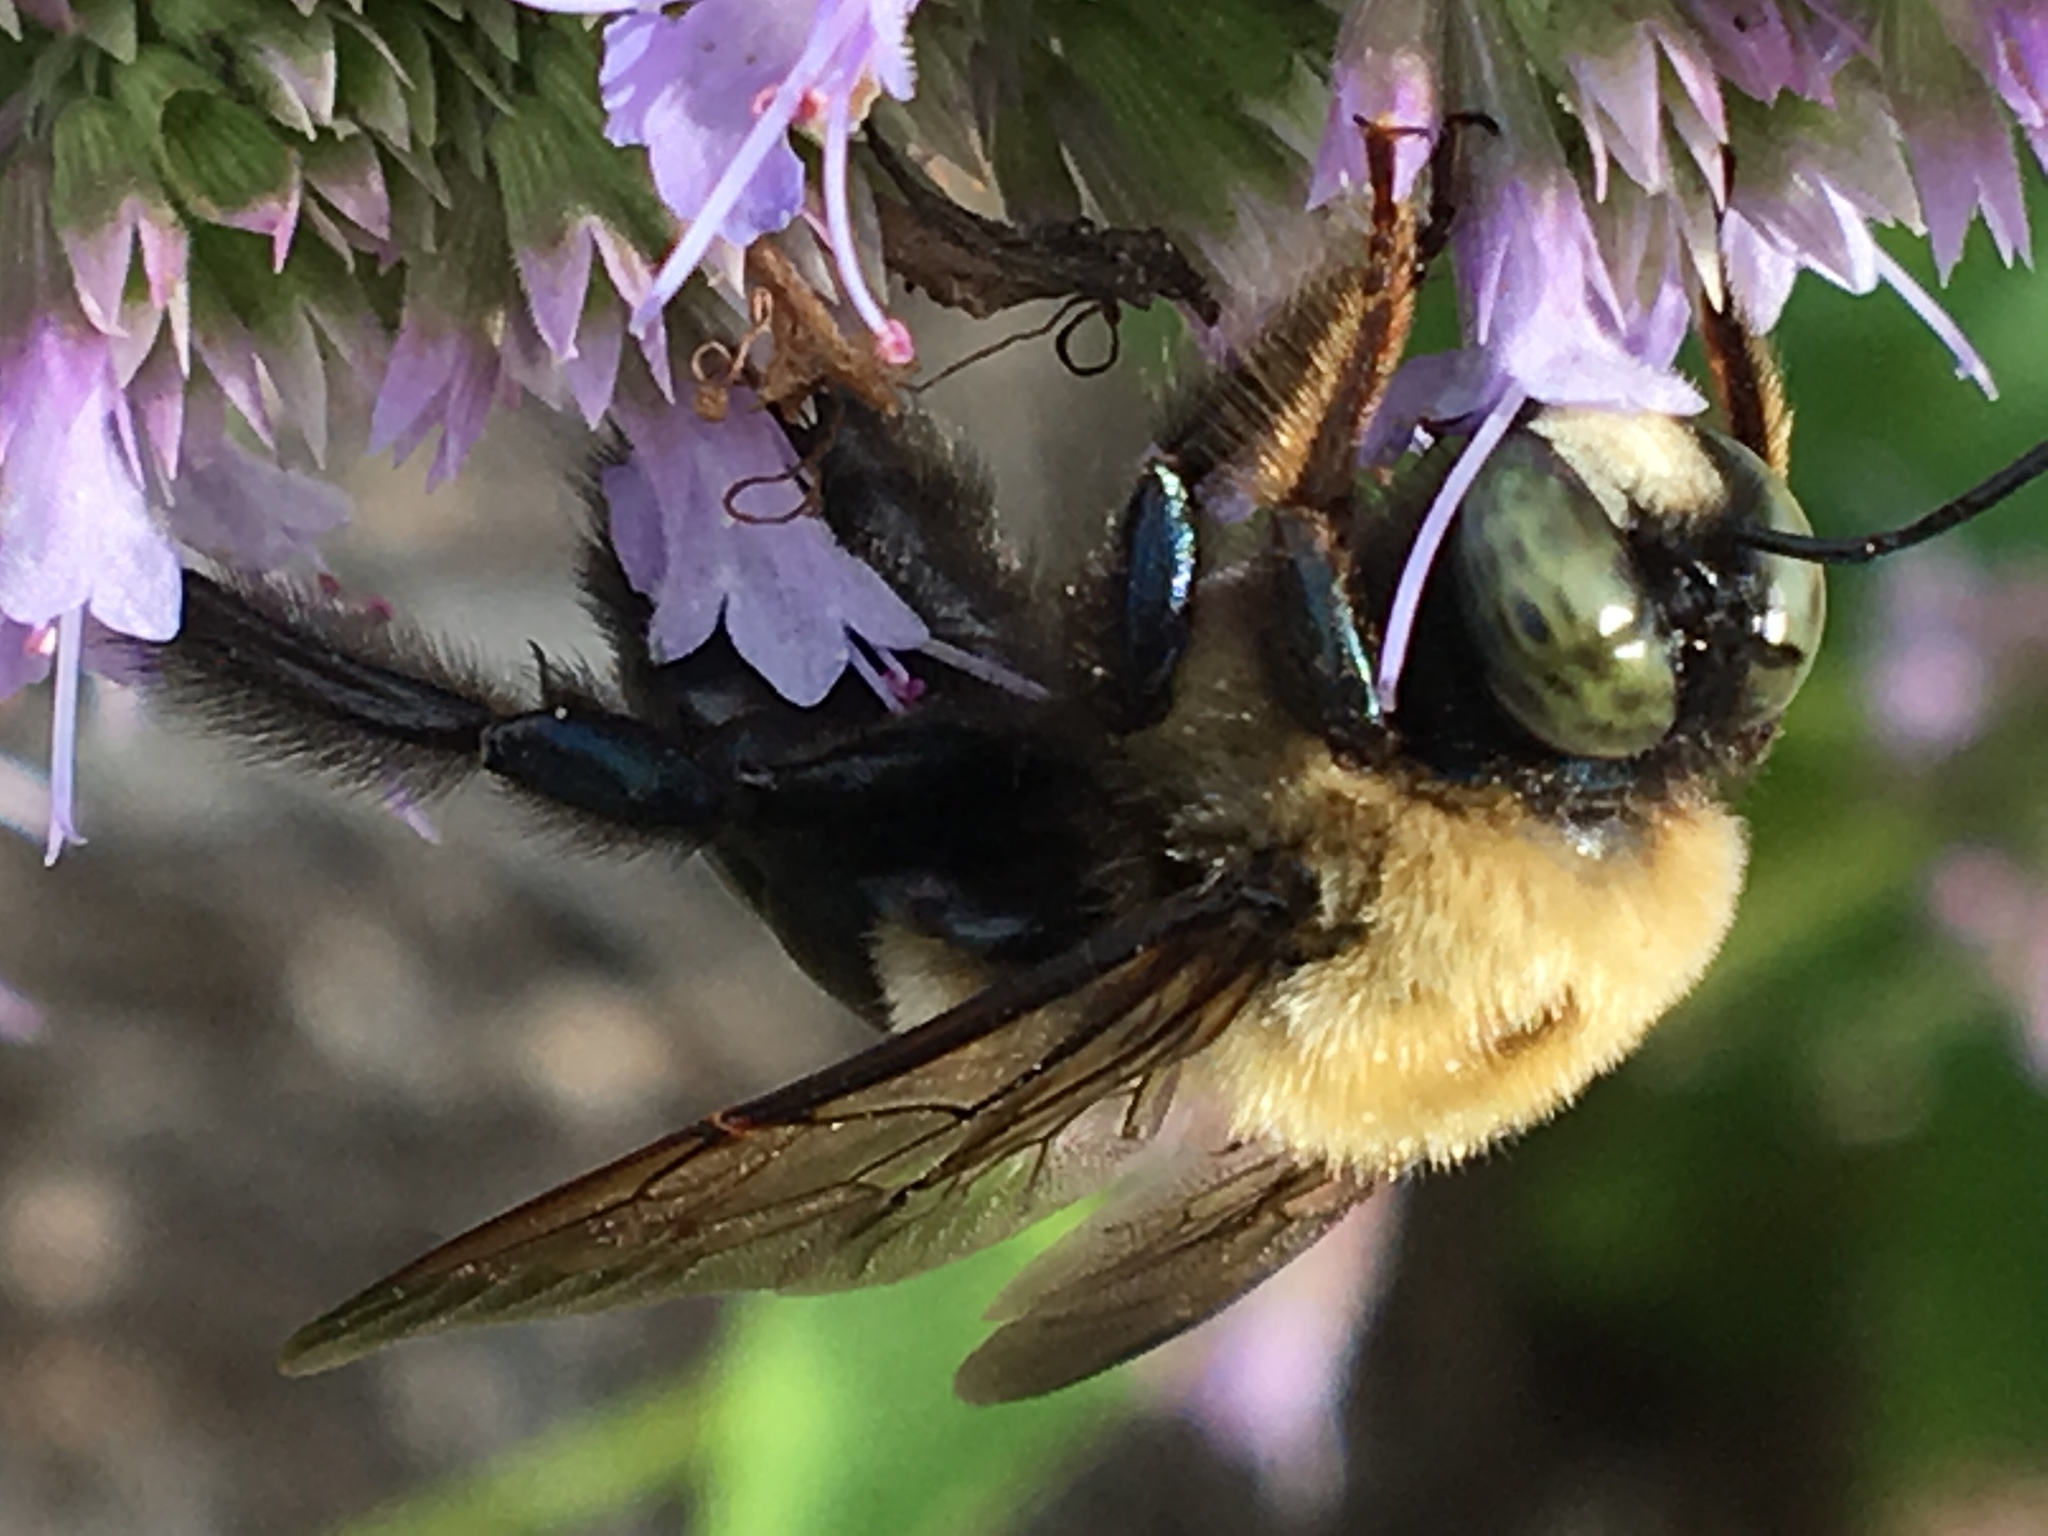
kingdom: Animalia
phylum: Arthropoda
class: Insecta
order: Hymenoptera
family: Apidae
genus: Xylocopa
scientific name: Xylocopa virginica
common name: Carpenter bee
